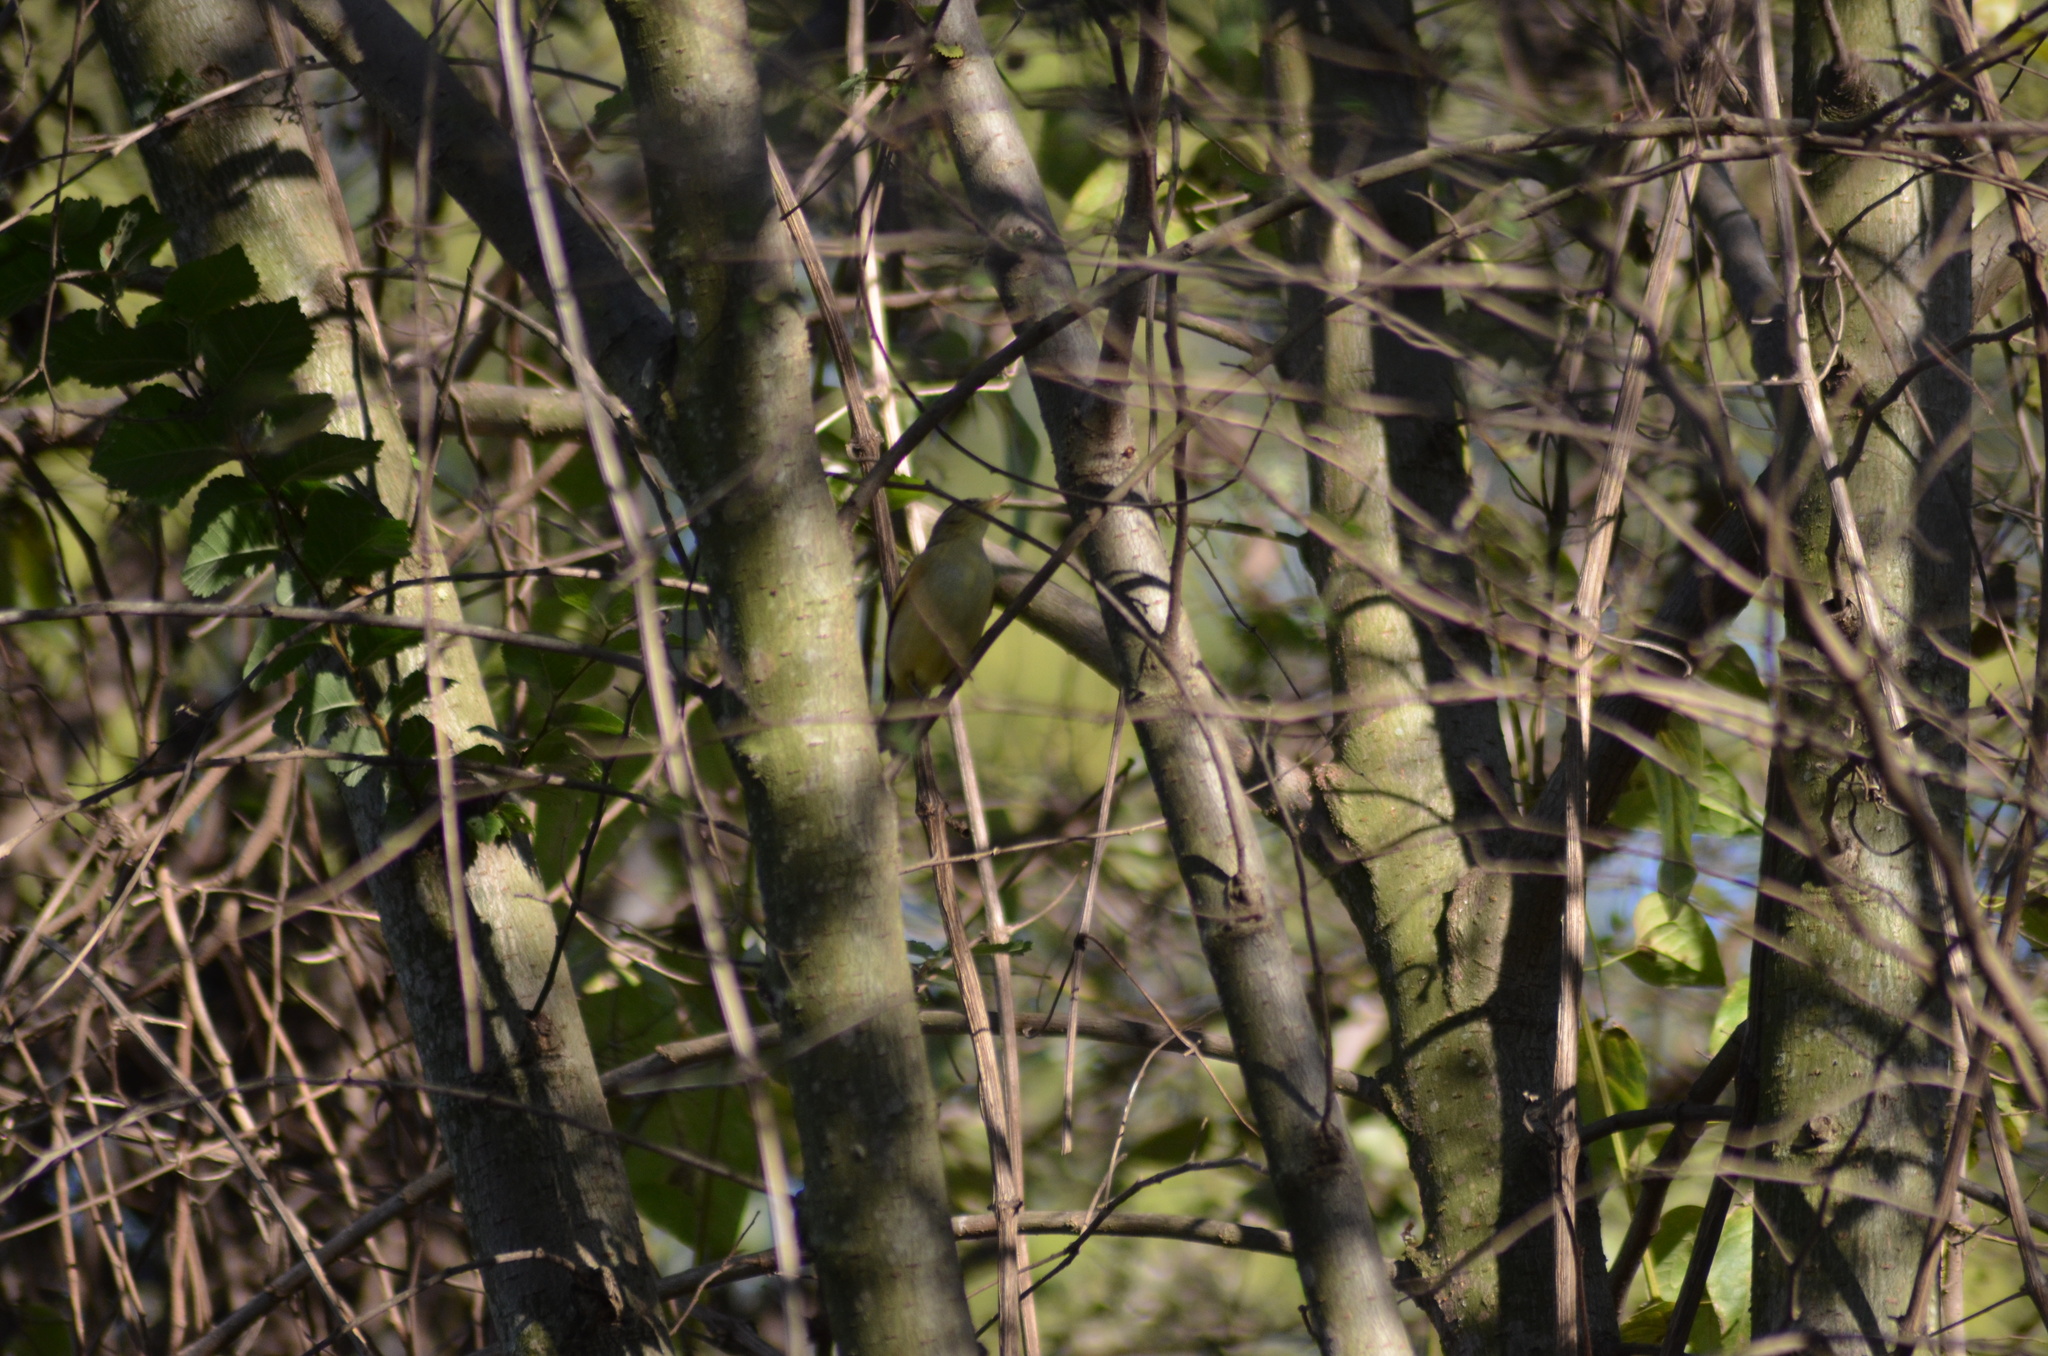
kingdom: Animalia
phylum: Chordata
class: Aves
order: Passeriformes
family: Phylloscopidae
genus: Phylloscopus
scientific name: Phylloscopus trochilus
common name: Willow warbler
